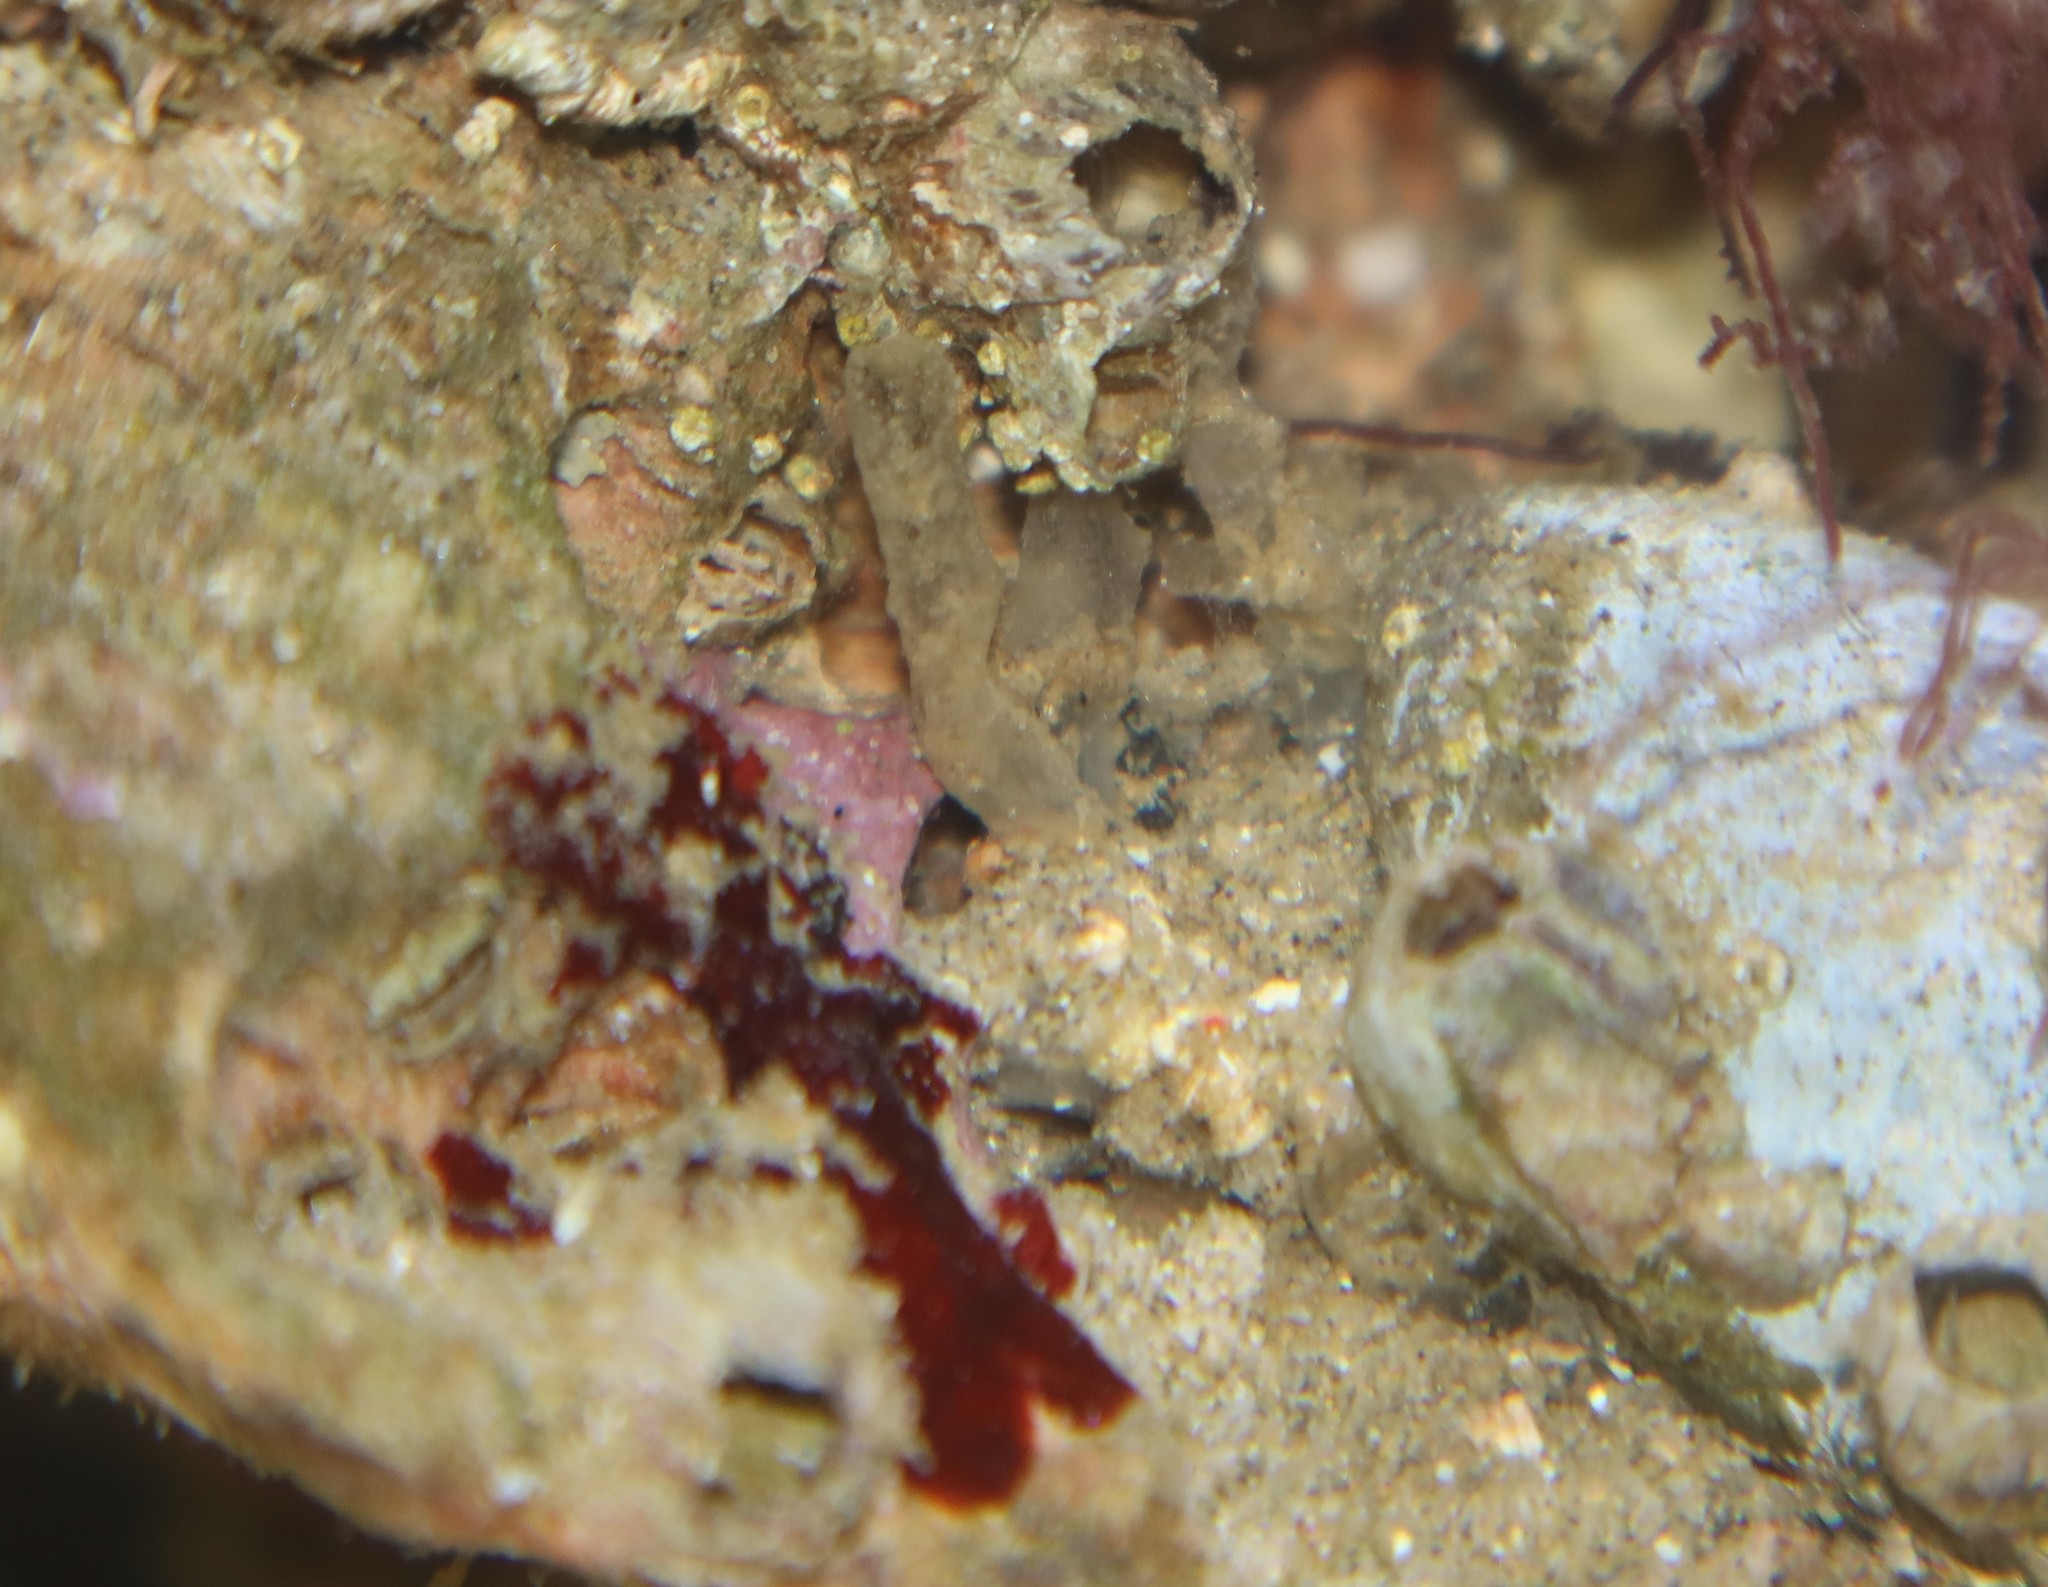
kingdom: Animalia
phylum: Porifera
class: Demospongiae
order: Haplosclerida
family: Phloeodictyidae
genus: Oceanapia
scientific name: Oceanapia isodictyiformis
